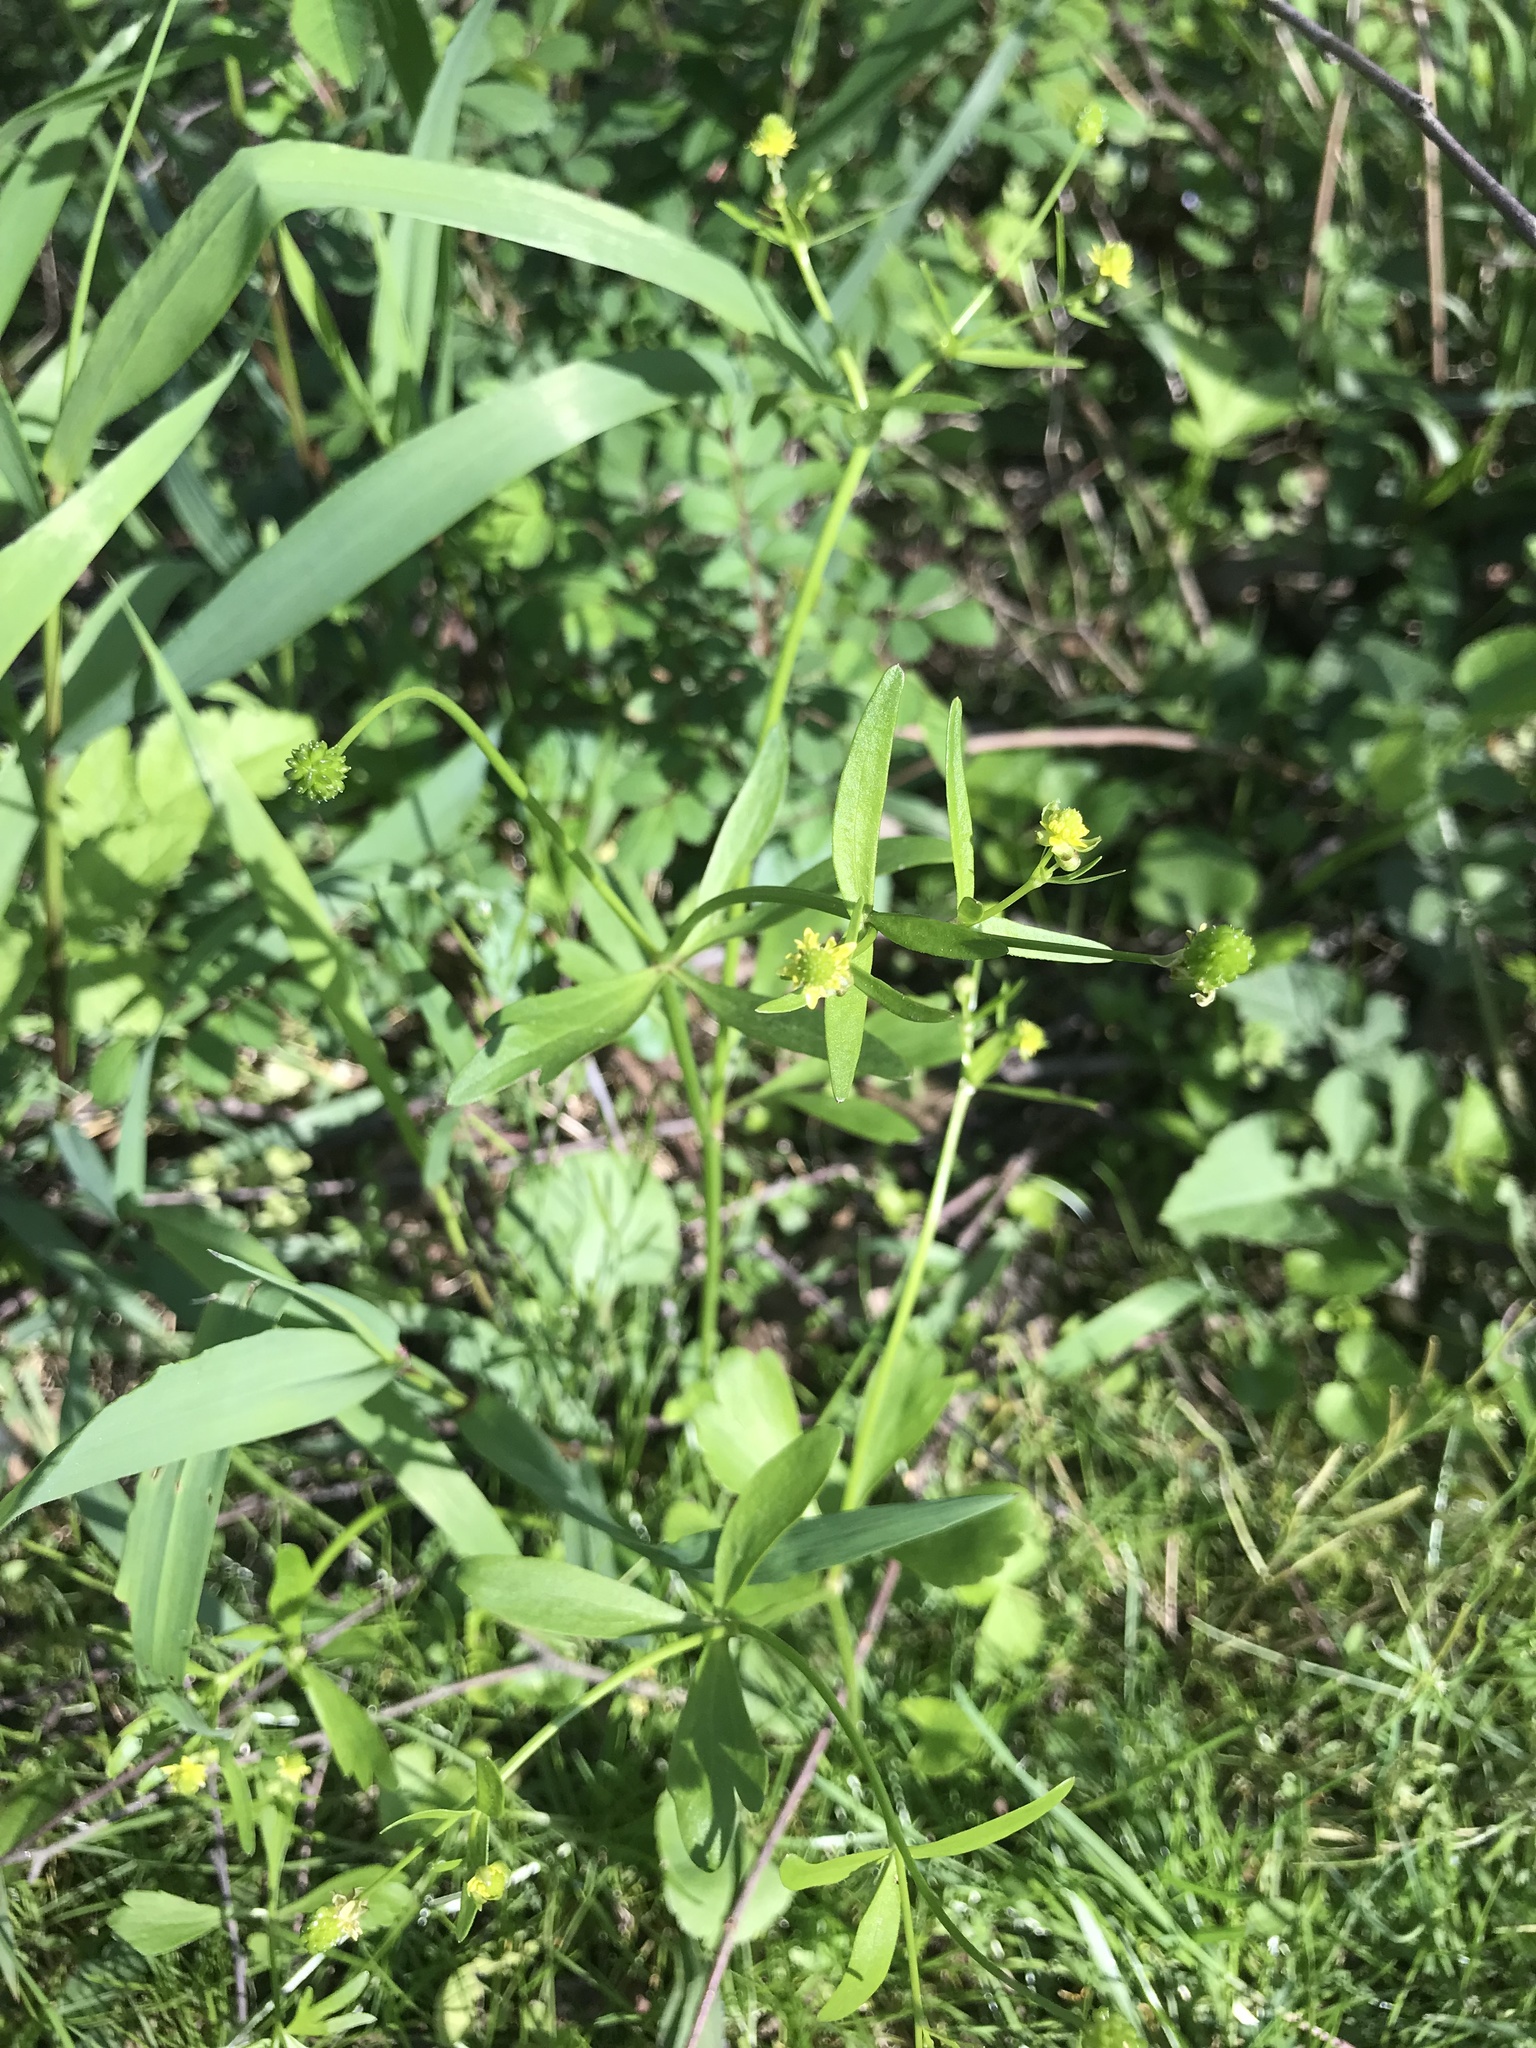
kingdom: Plantae
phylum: Tracheophyta
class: Magnoliopsida
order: Ranunculales
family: Ranunculaceae
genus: Ranunculus
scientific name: Ranunculus abortivus
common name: Early wood buttercup
